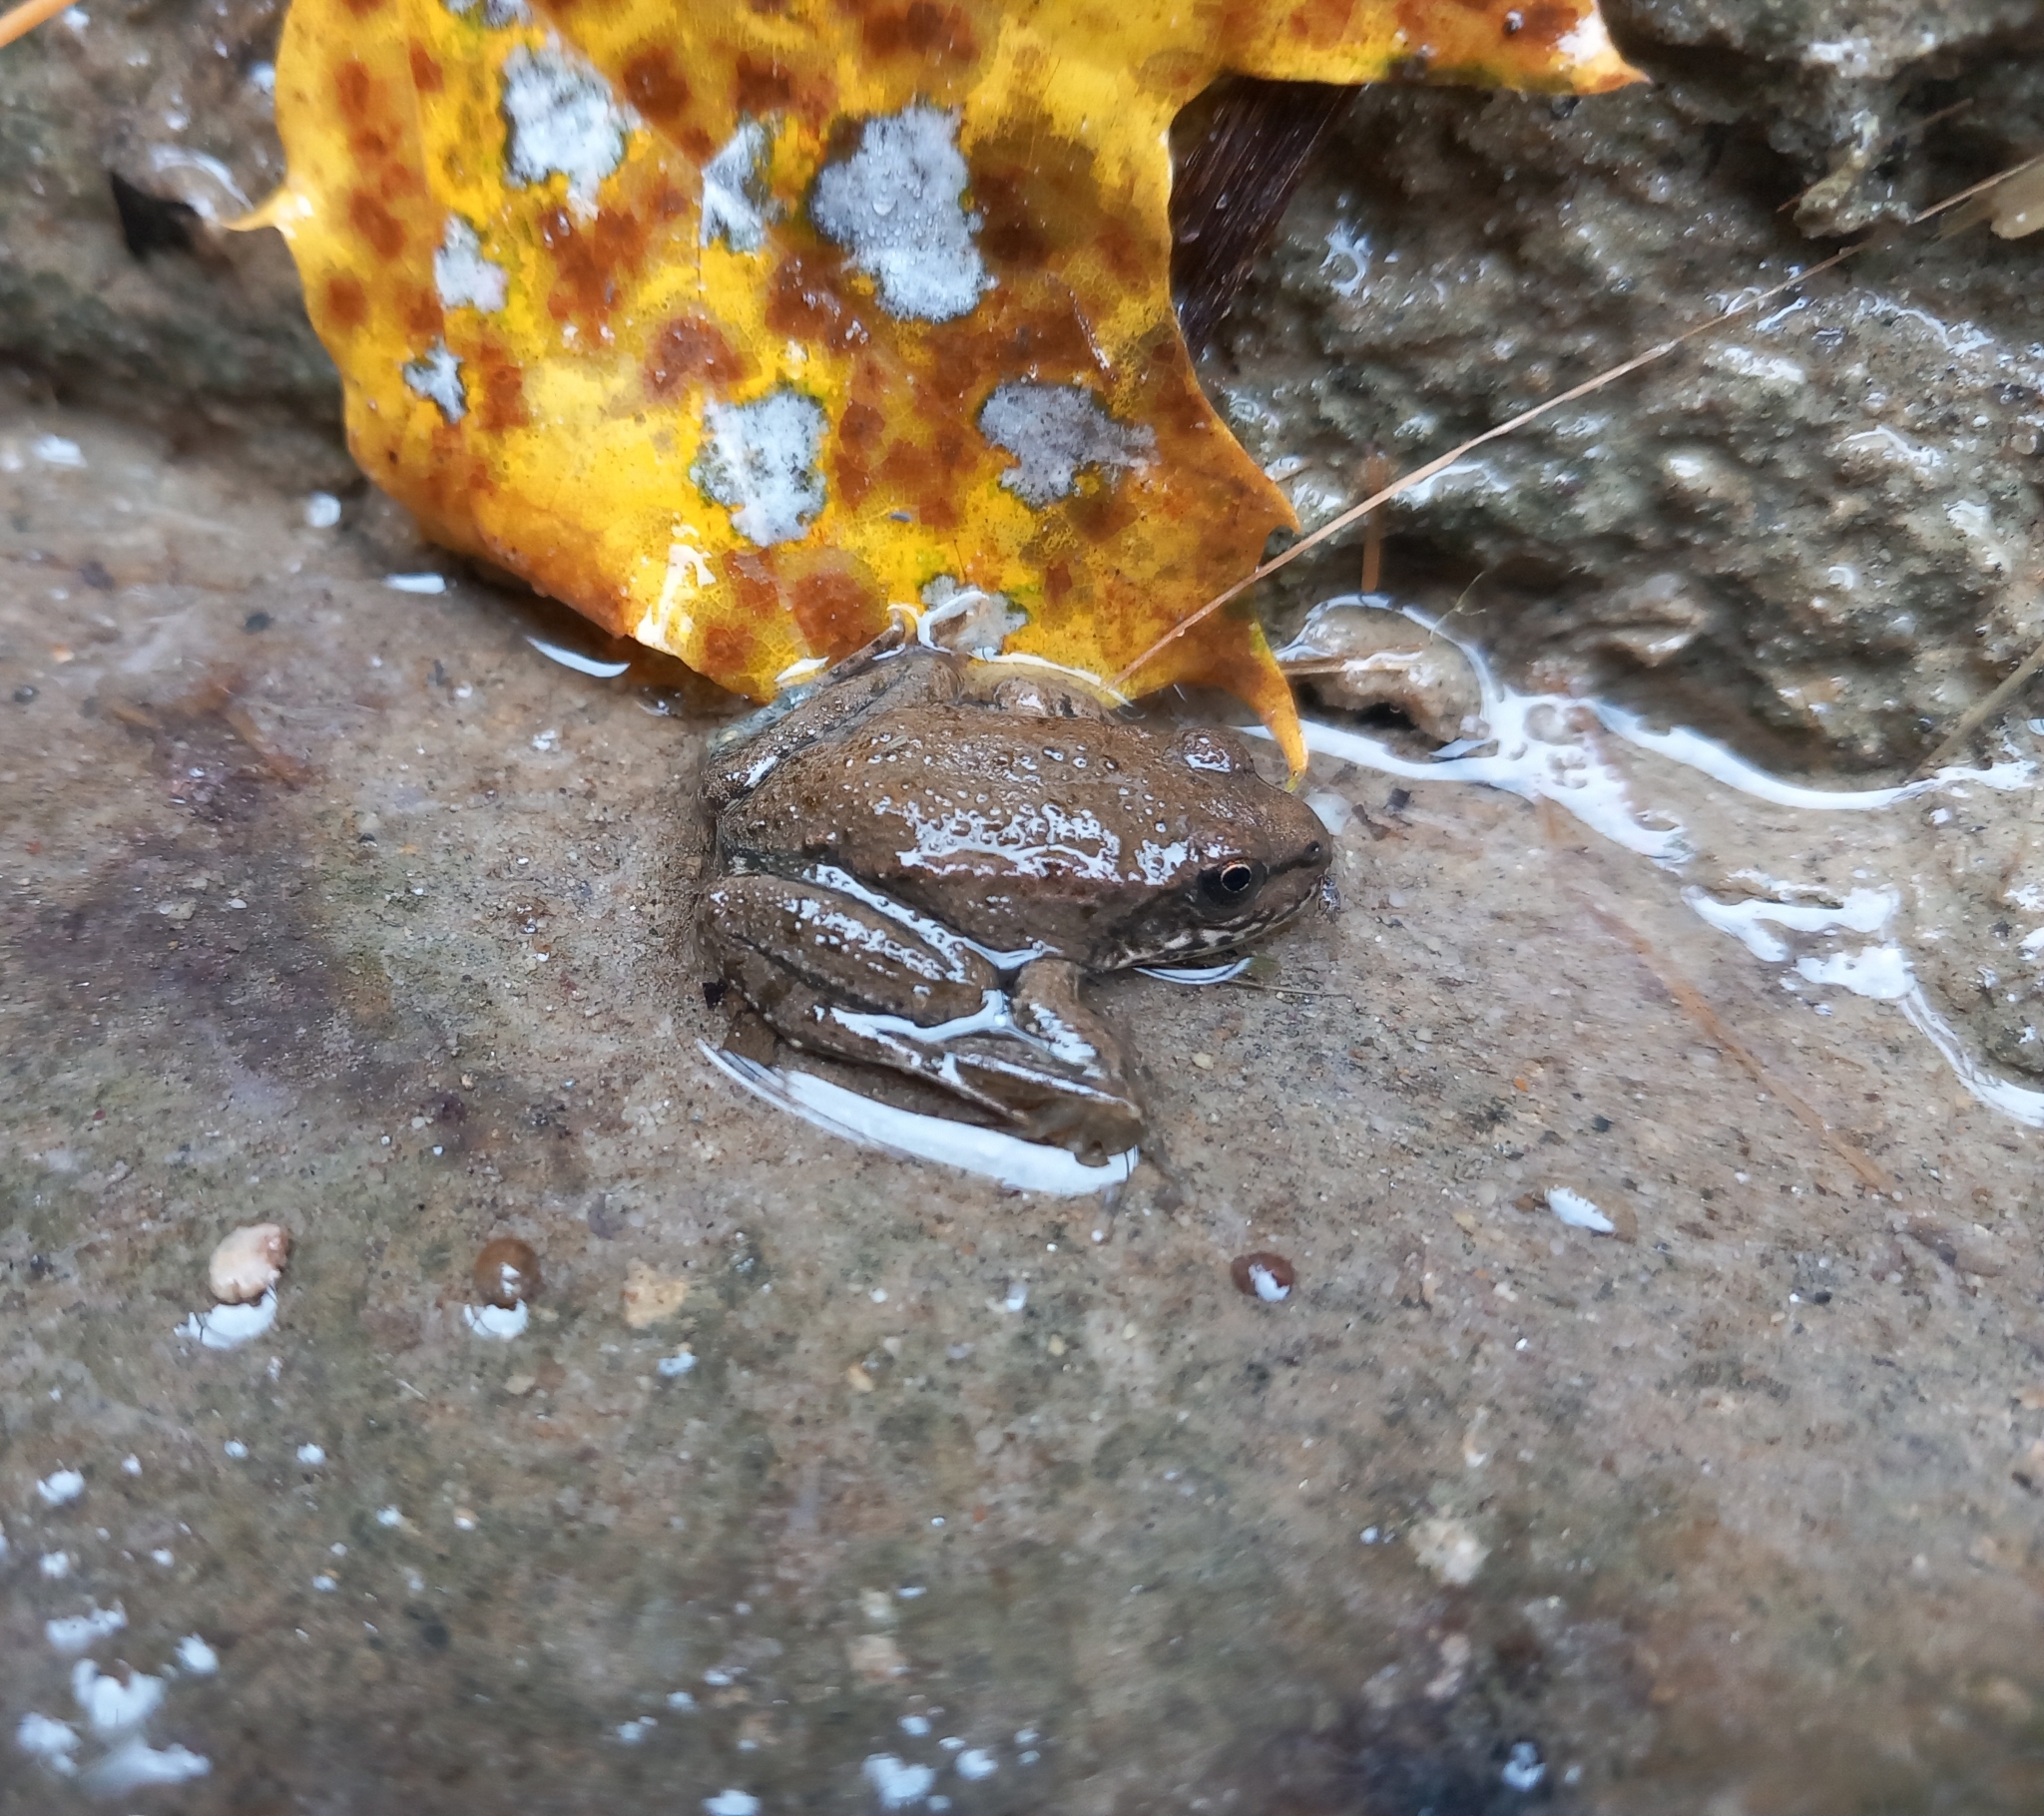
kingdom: Animalia
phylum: Chordata
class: Amphibia
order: Anura
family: Ranidae
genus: Pelophylax
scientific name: Pelophylax
